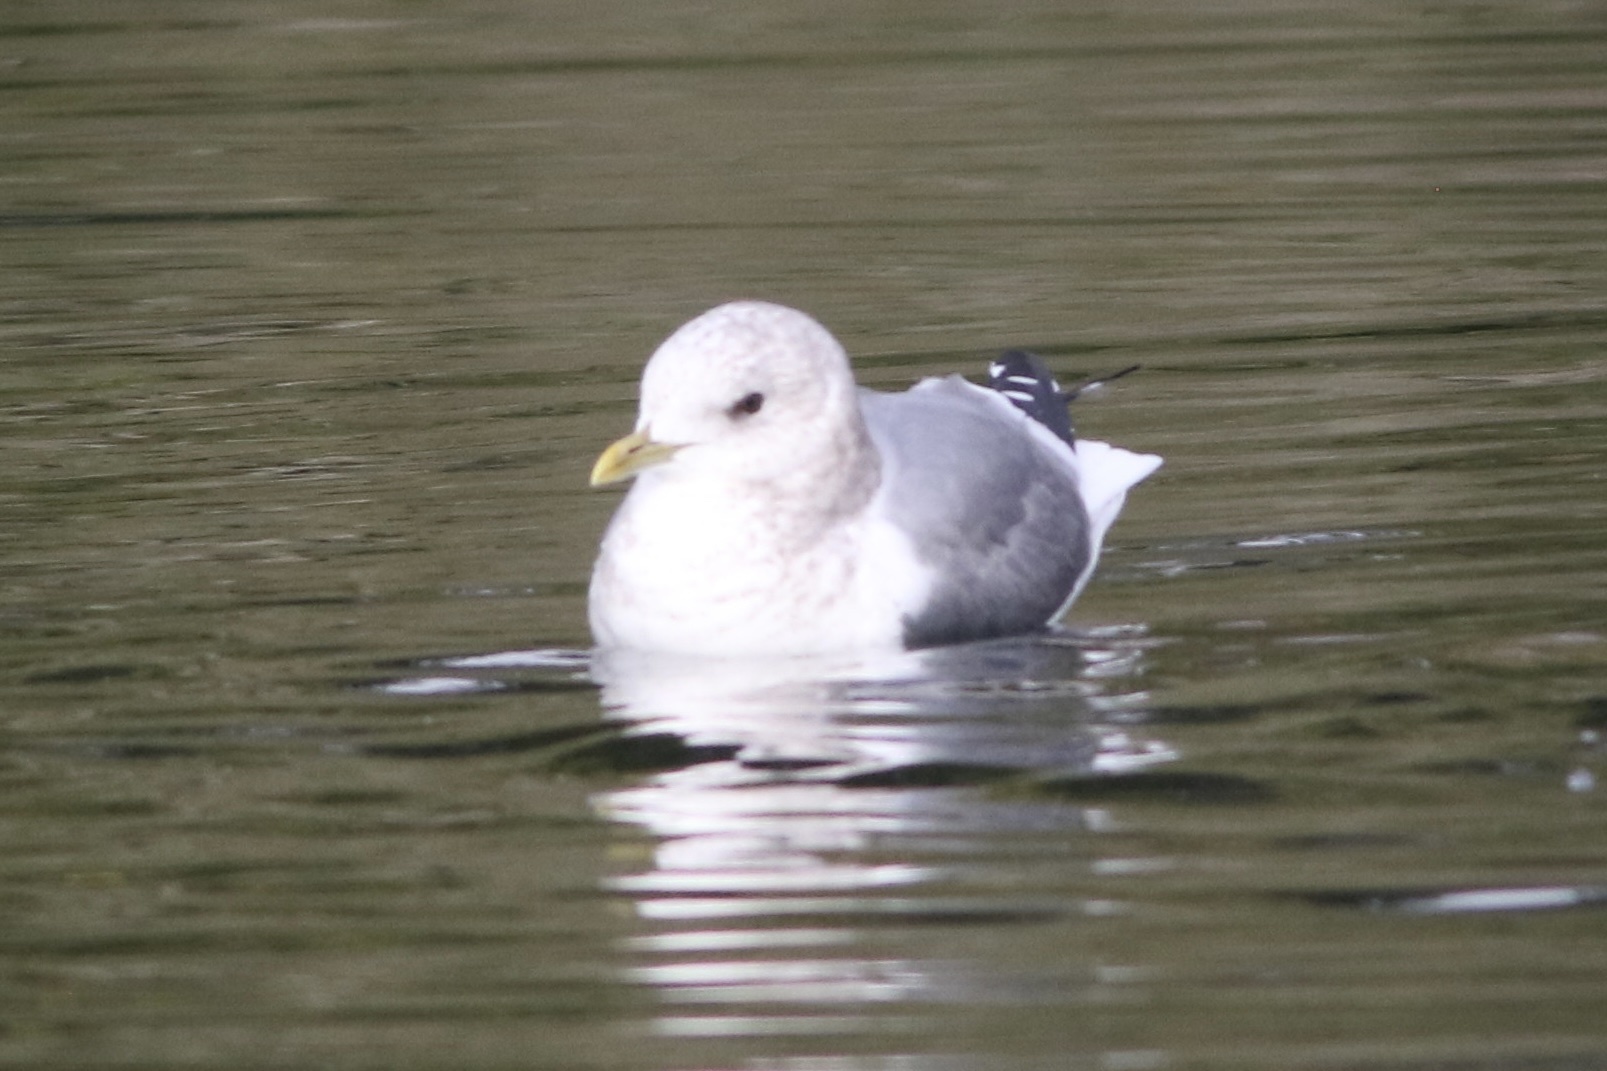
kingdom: Animalia
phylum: Chordata
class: Aves
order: Charadriiformes
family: Laridae
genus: Larus
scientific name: Larus brachyrhynchus
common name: Short-billed gull
